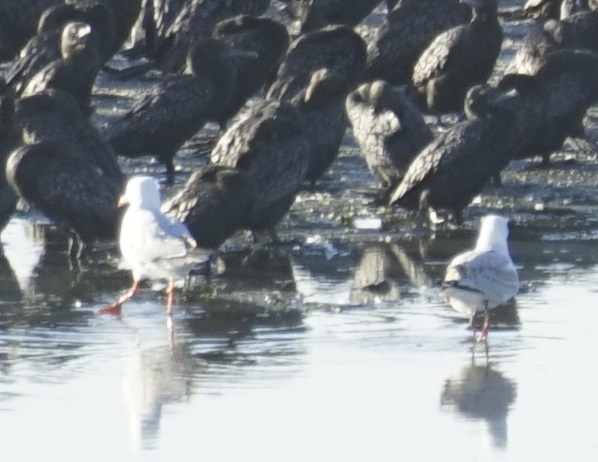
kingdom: Animalia
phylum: Chordata
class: Aves
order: Charadriiformes
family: Laridae
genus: Chroicocephalus
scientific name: Chroicocephalus novaehollandiae
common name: Silver gull
